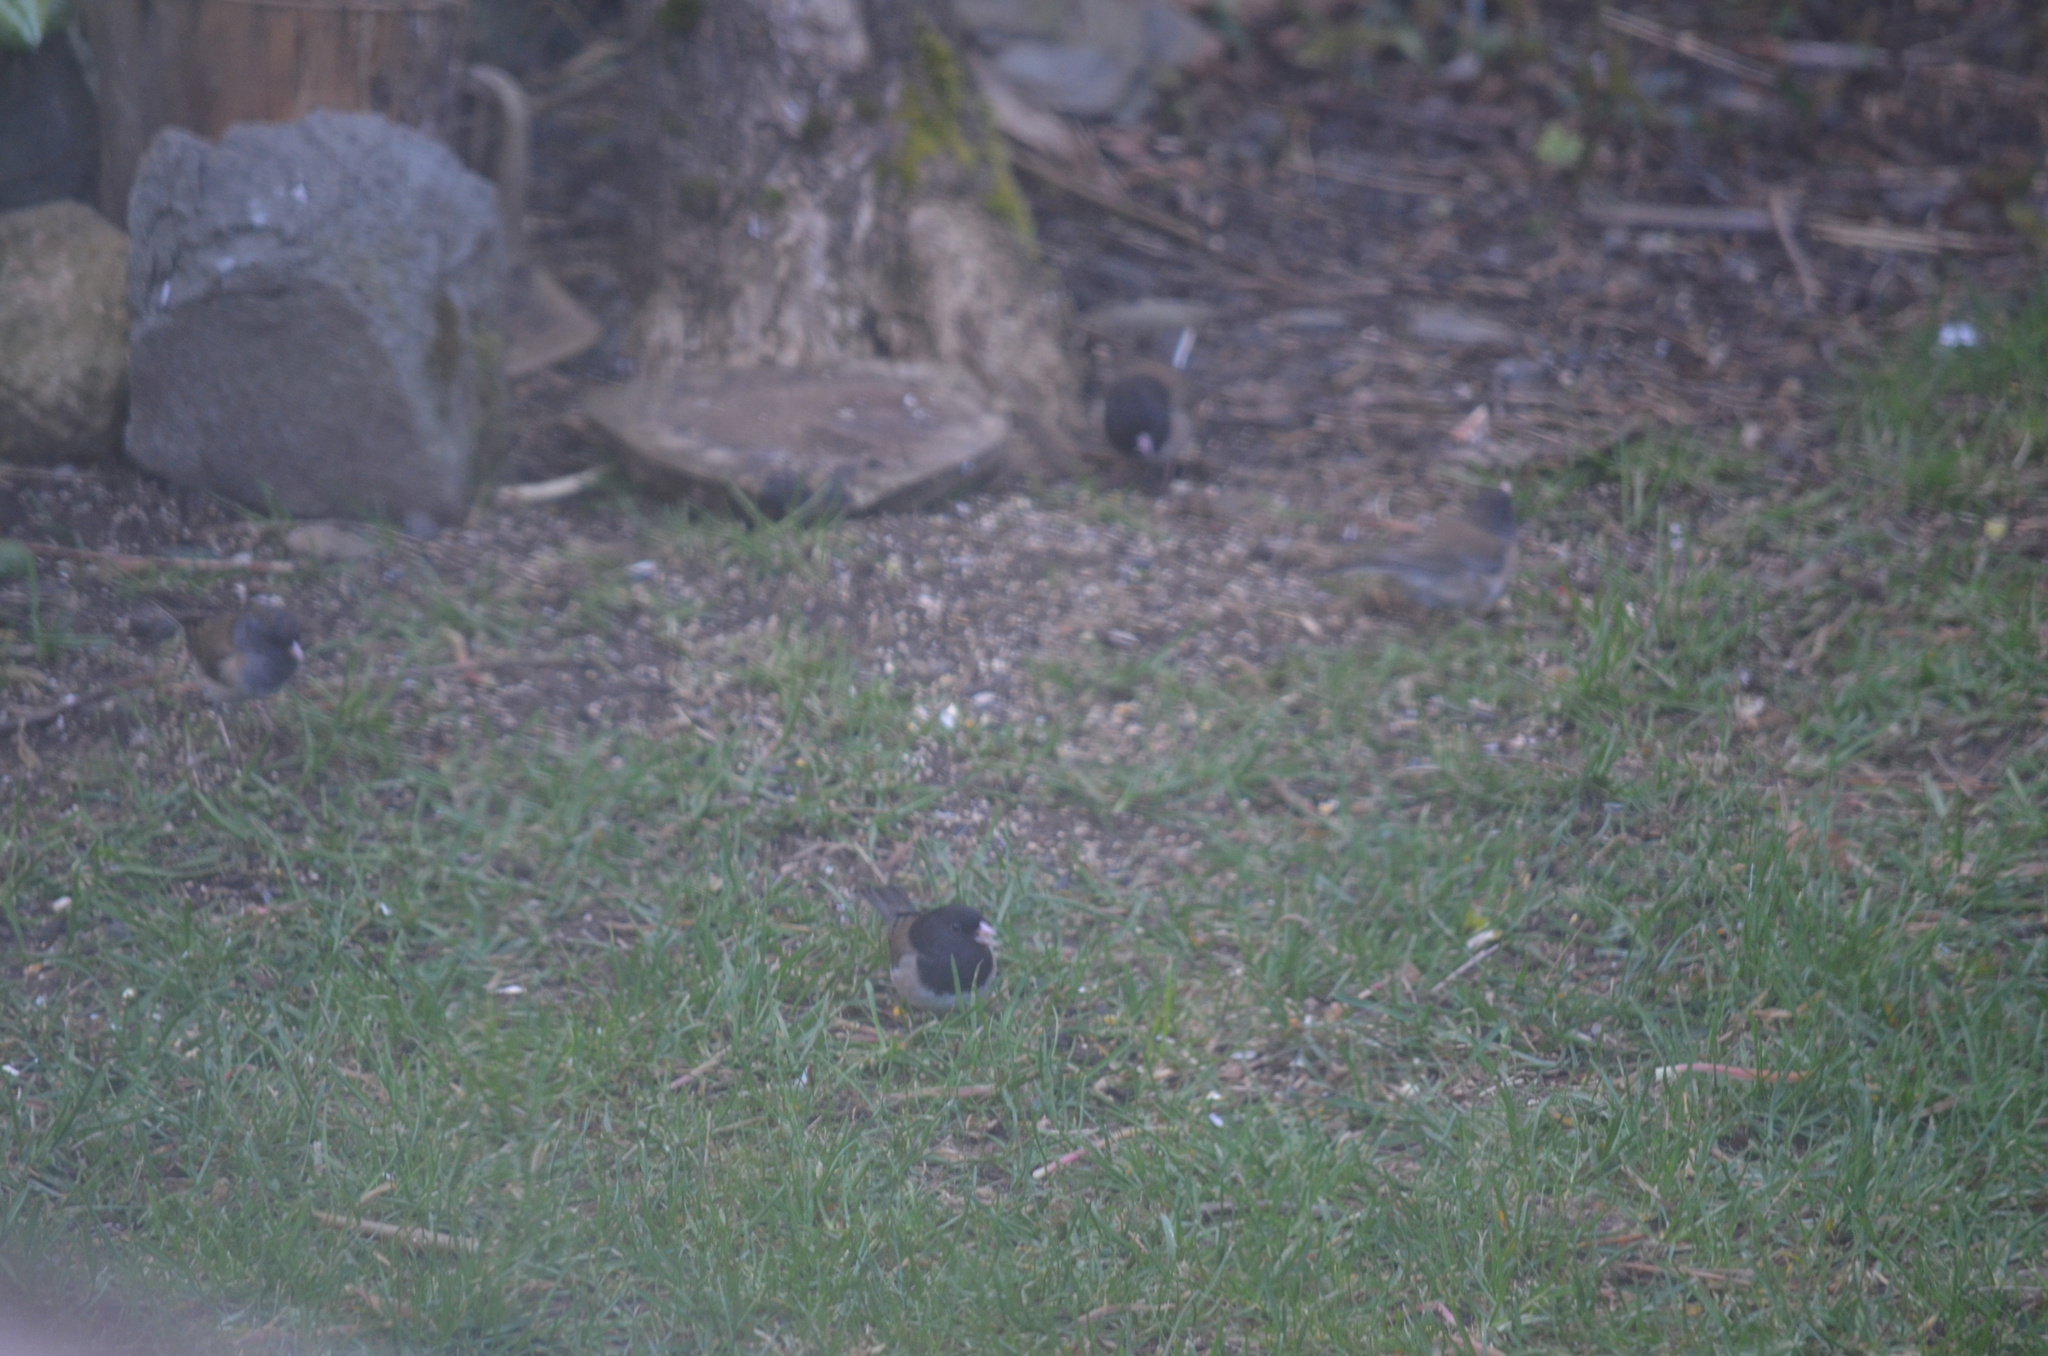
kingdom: Animalia
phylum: Chordata
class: Aves
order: Passeriformes
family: Passerellidae
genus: Junco
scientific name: Junco hyemalis
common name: Dark-eyed junco
